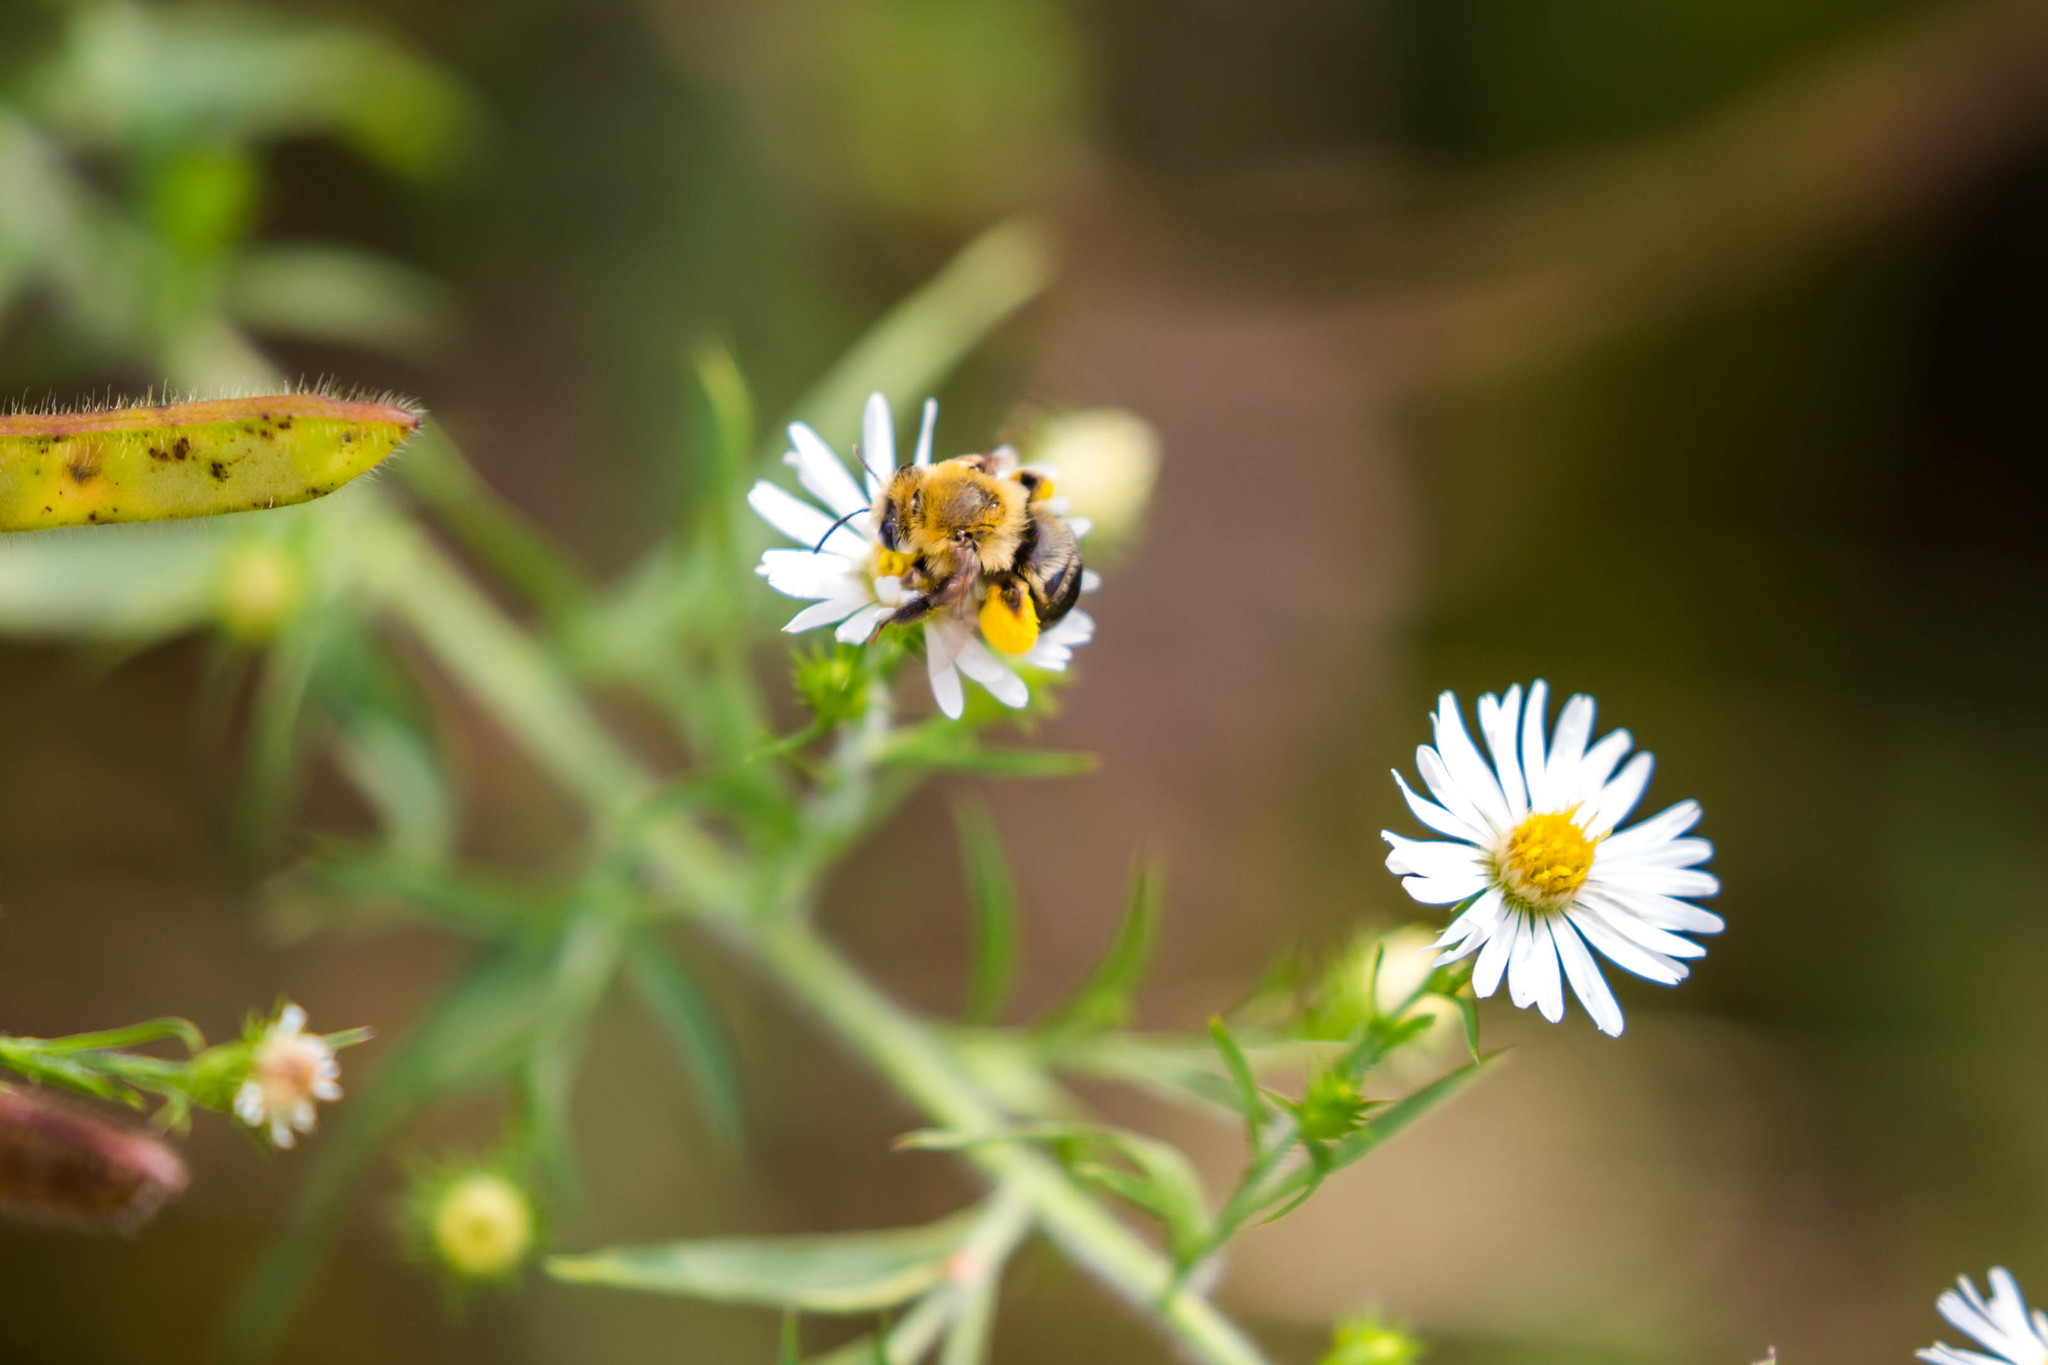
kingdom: Animalia
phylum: Arthropoda
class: Insecta
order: Hymenoptera
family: Apidae
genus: Melissodes
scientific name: Melissodes dentiventris
